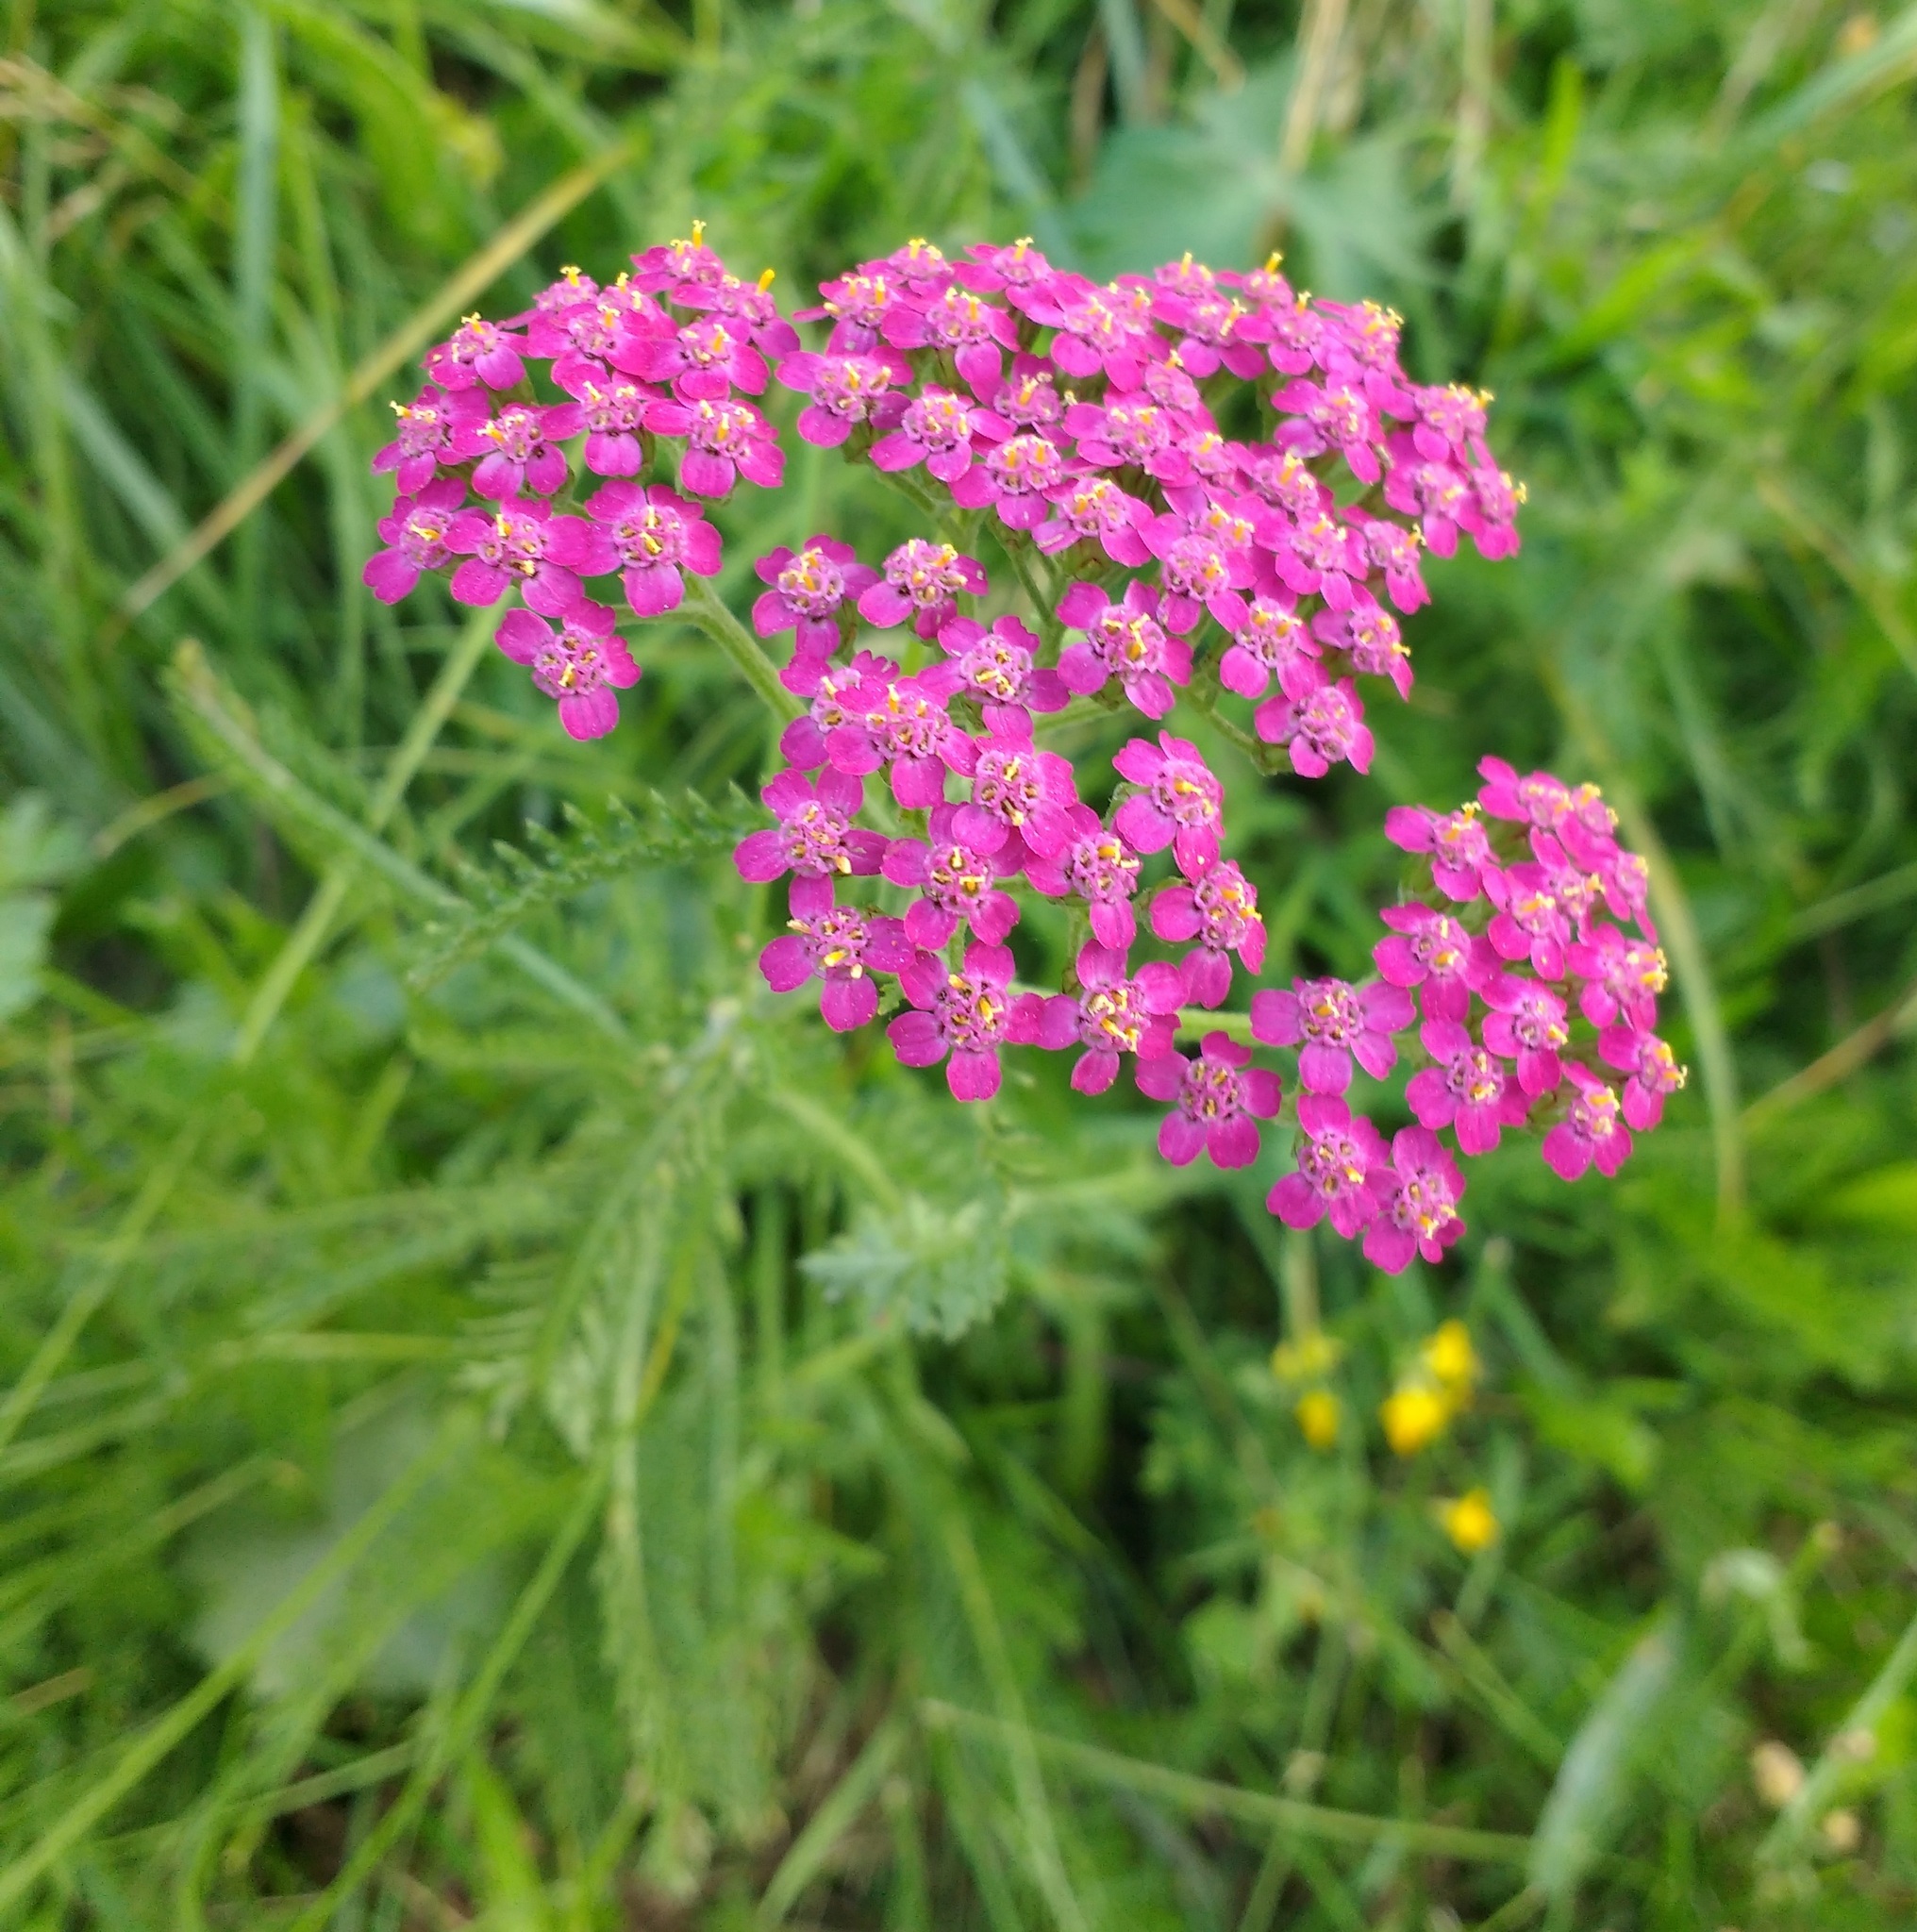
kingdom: Plantae
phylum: Tracheophyta
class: Magnoliopsida
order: Asterales
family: Asteraceae
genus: Achillea
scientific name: Achillea millefolium
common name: Yarrow
